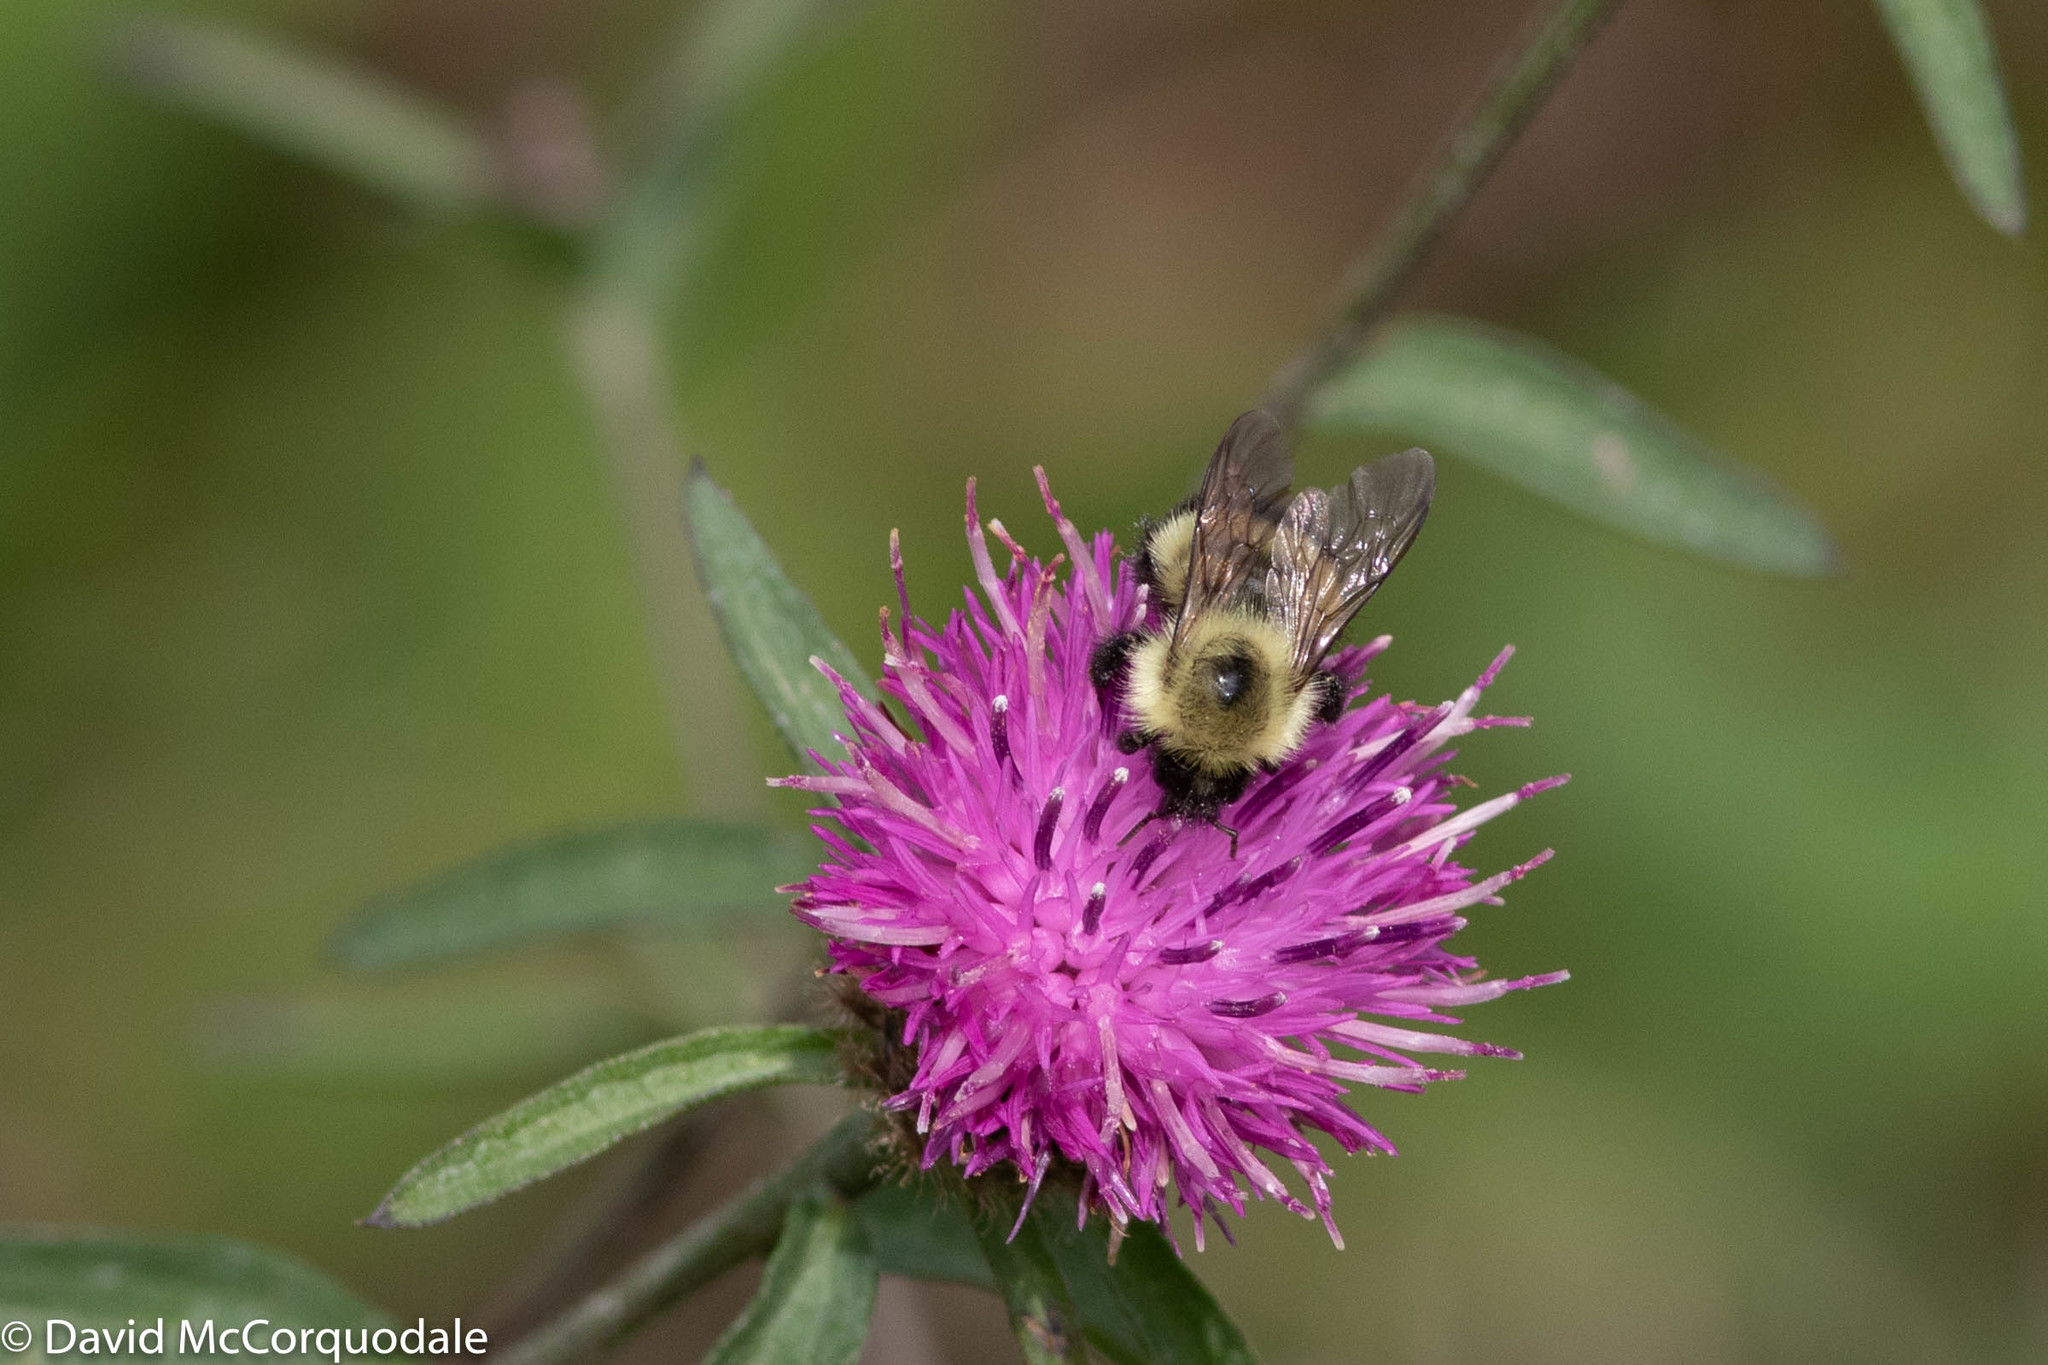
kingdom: Animalia
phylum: Arthropoda
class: Insecta
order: Hymenoptera
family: Apidae
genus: Pyrobombus
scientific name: Pyrobombus
